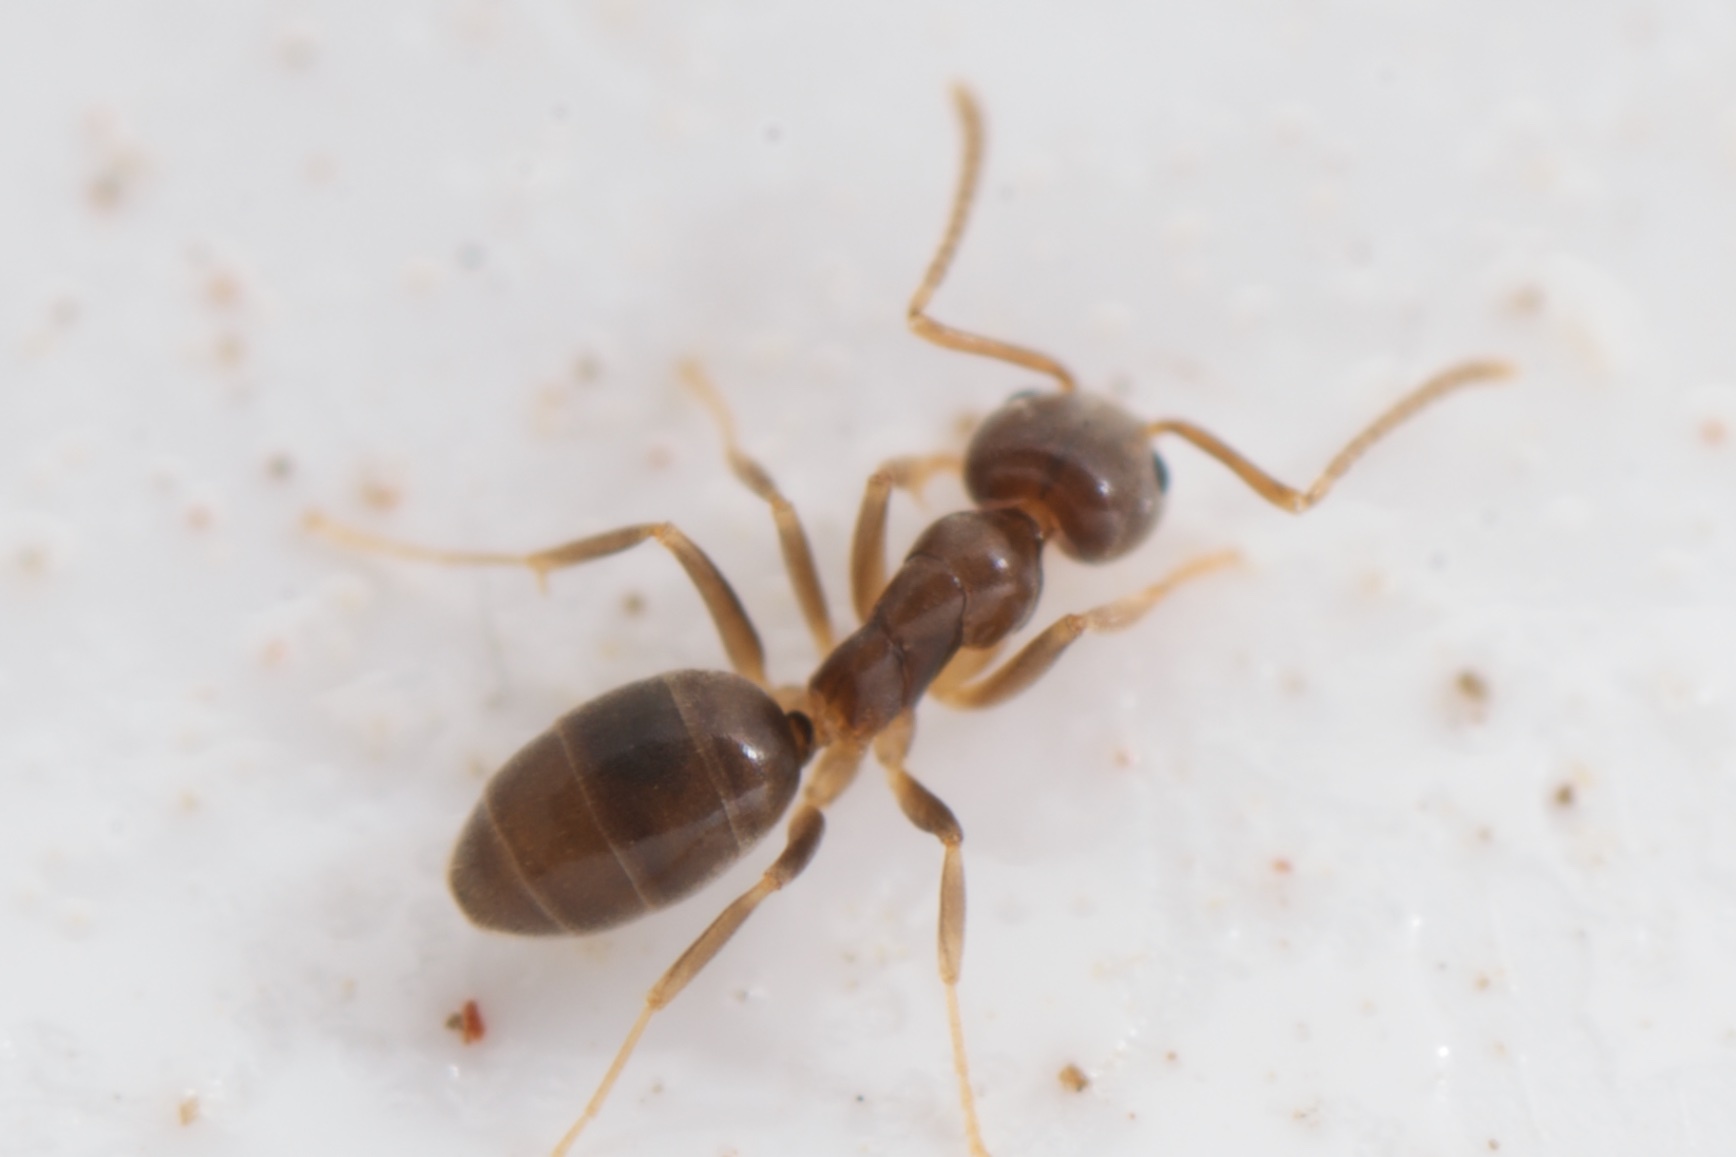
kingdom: Animalia
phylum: Arthropoda
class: Insecta
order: Hymenoptera
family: Formicidae
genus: Doleromyrma
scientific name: Doleromyrma darwiniana
